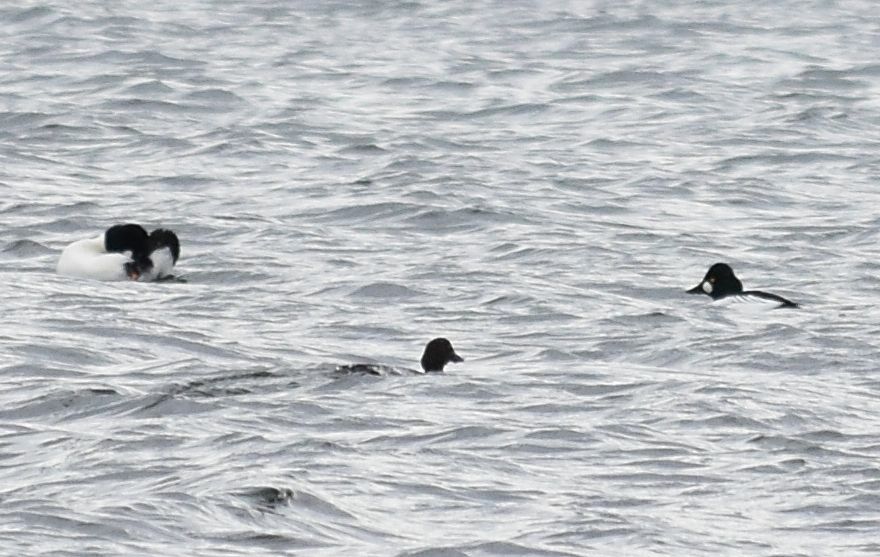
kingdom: Animalia
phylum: Chordata
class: Aves
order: Anseriformes
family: Anatidae
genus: Bucephala
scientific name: Bucephala clangula
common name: Common goldeneye
